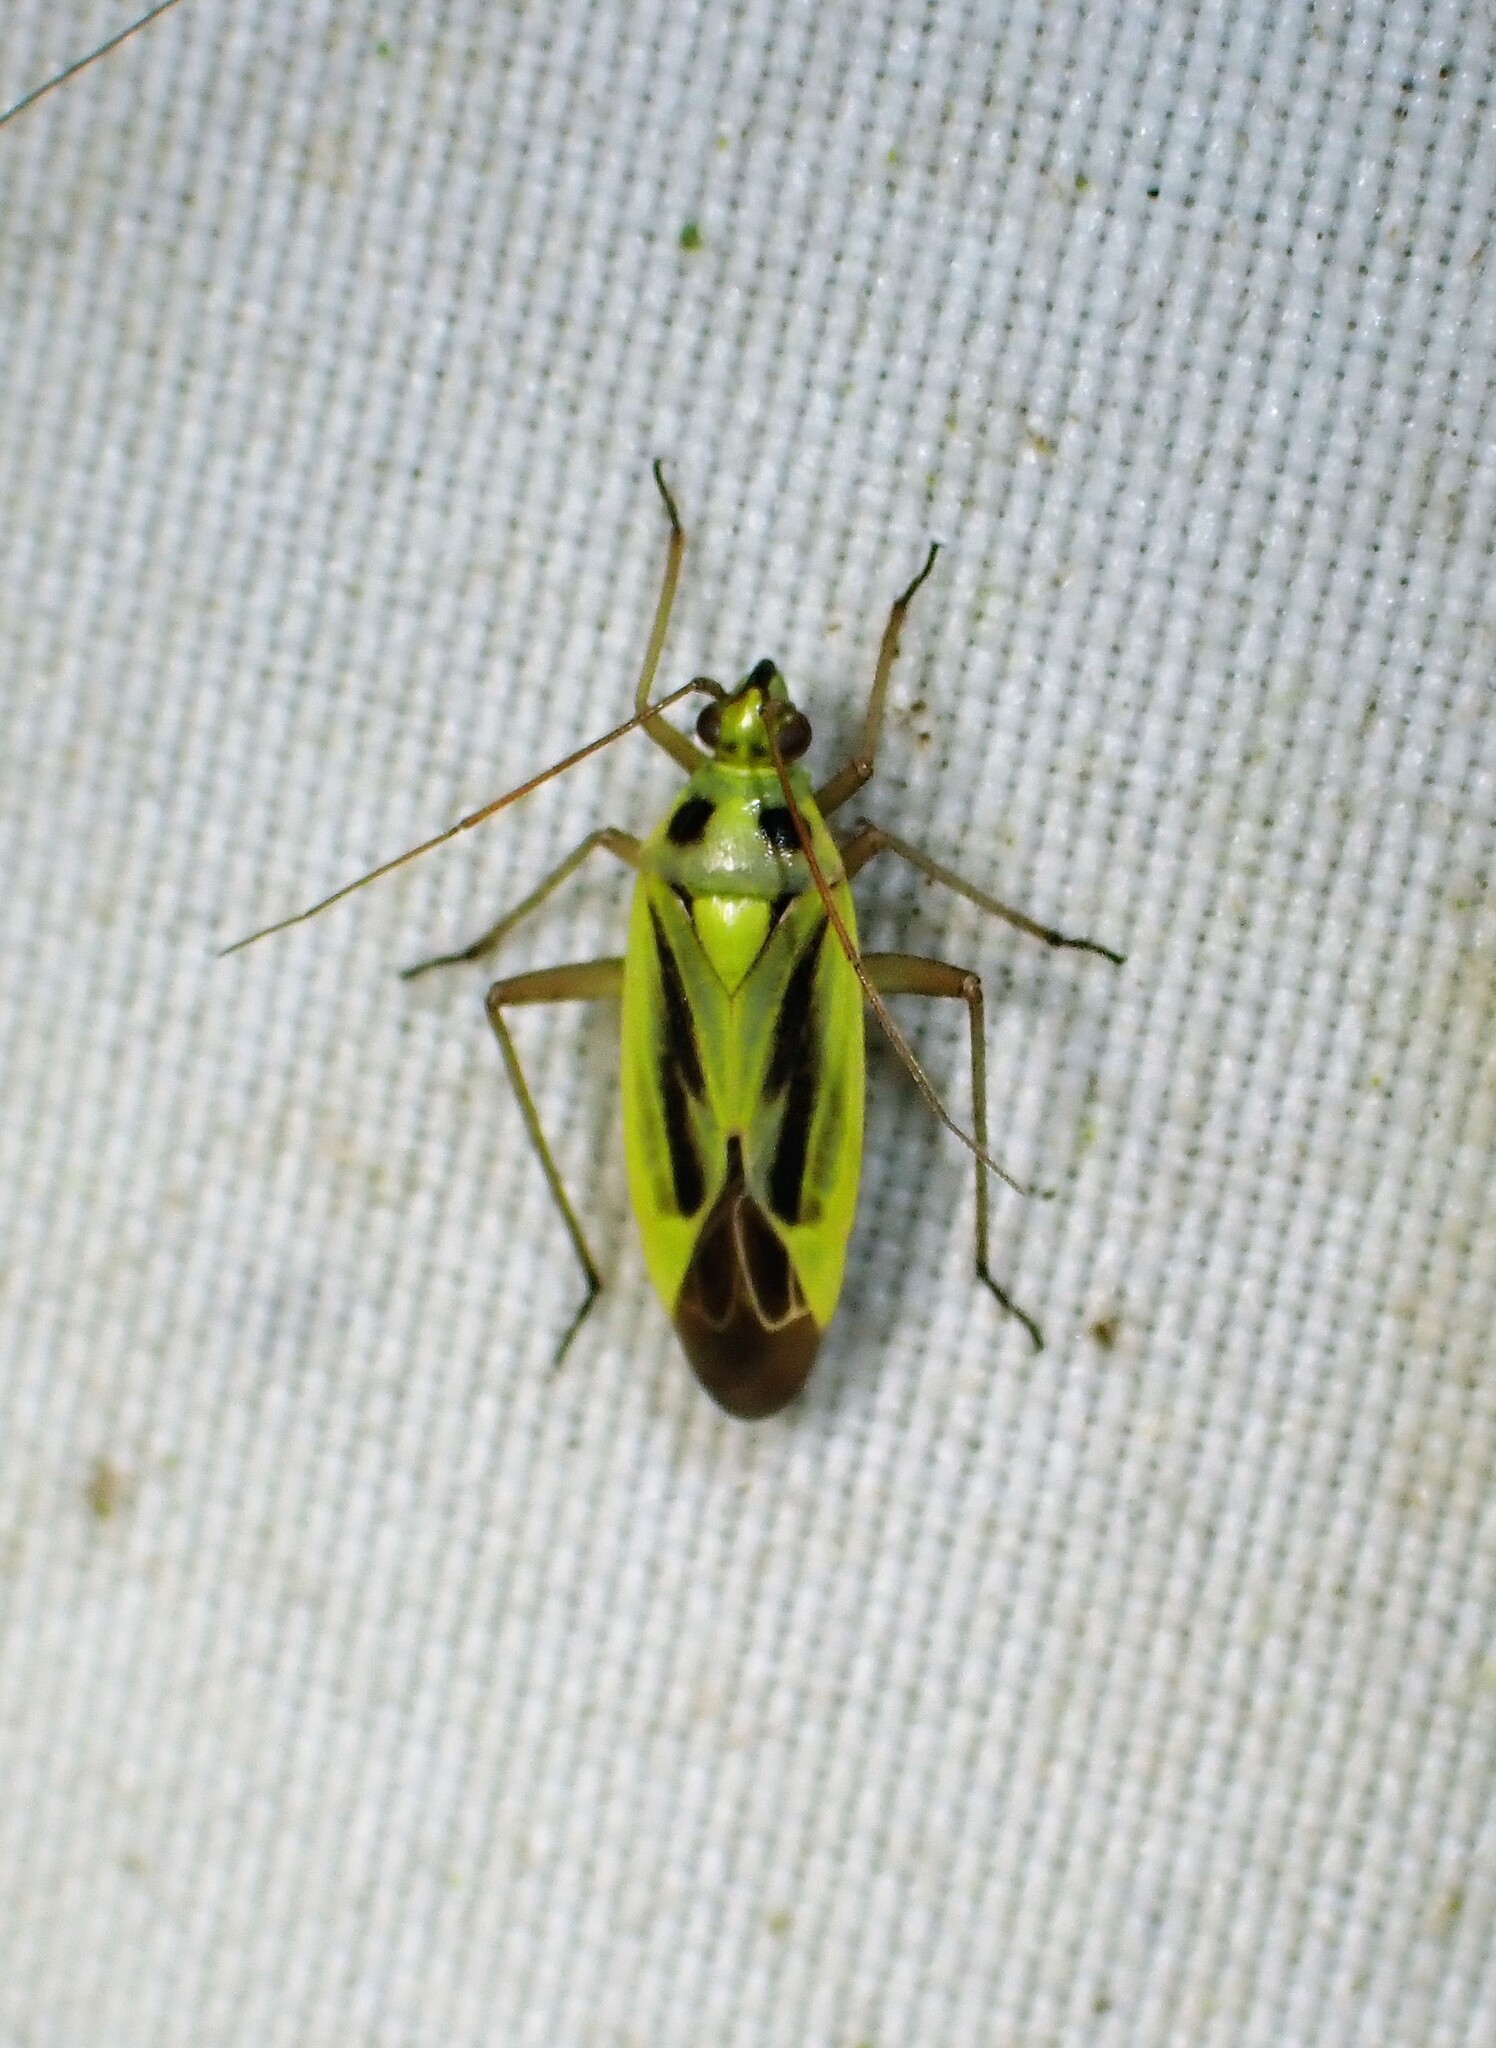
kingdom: Animalia
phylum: Arthropoda
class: Insecta
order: Hemiptera
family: Miridae
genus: Stenotus
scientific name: Stenotus binotatus
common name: Plant bug
